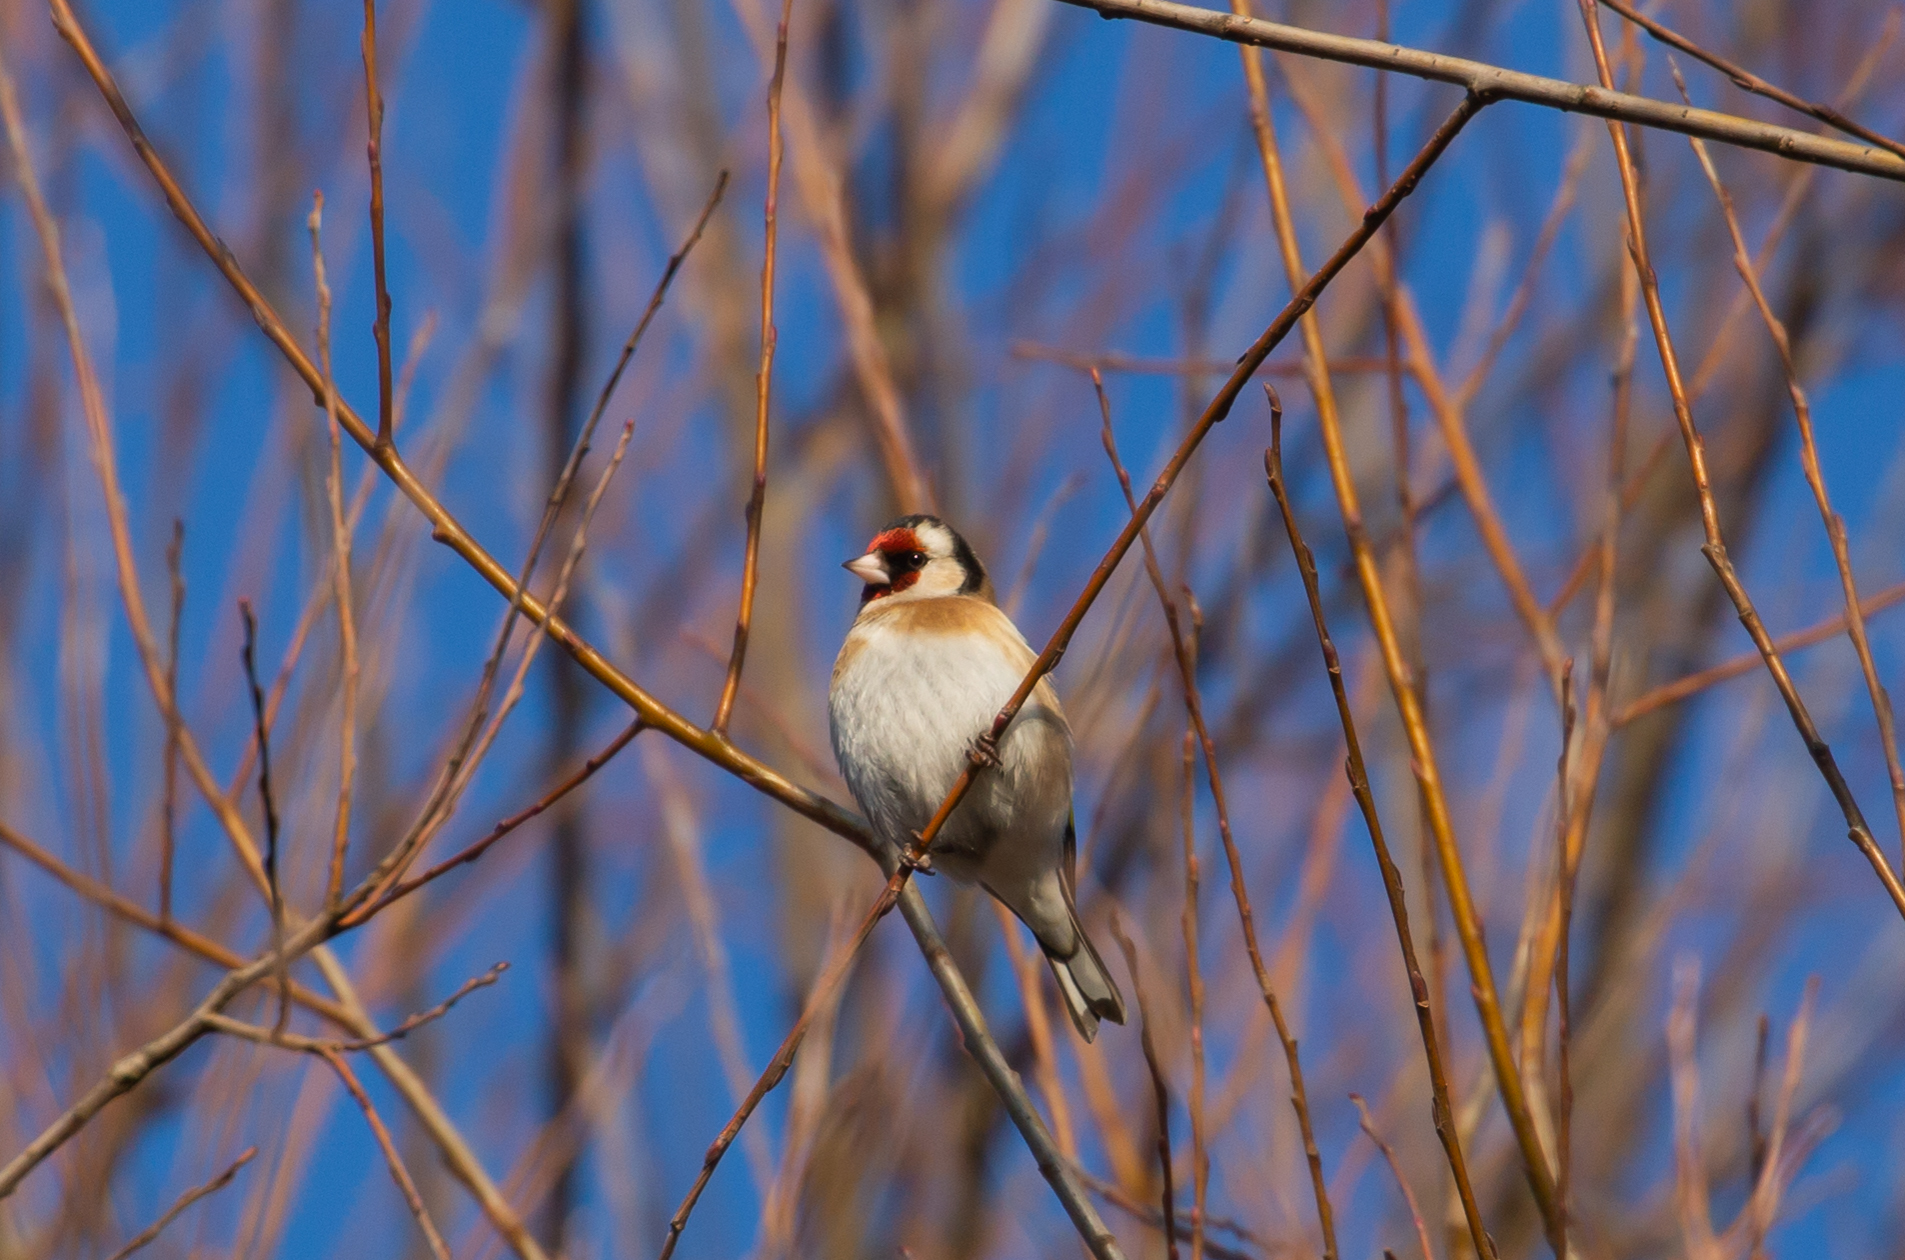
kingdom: Animalia
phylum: Chordata
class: Aves
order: Passeriformes
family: Fringillidae
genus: Carduelis
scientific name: Carduelis carduelis
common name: European goldfinch
